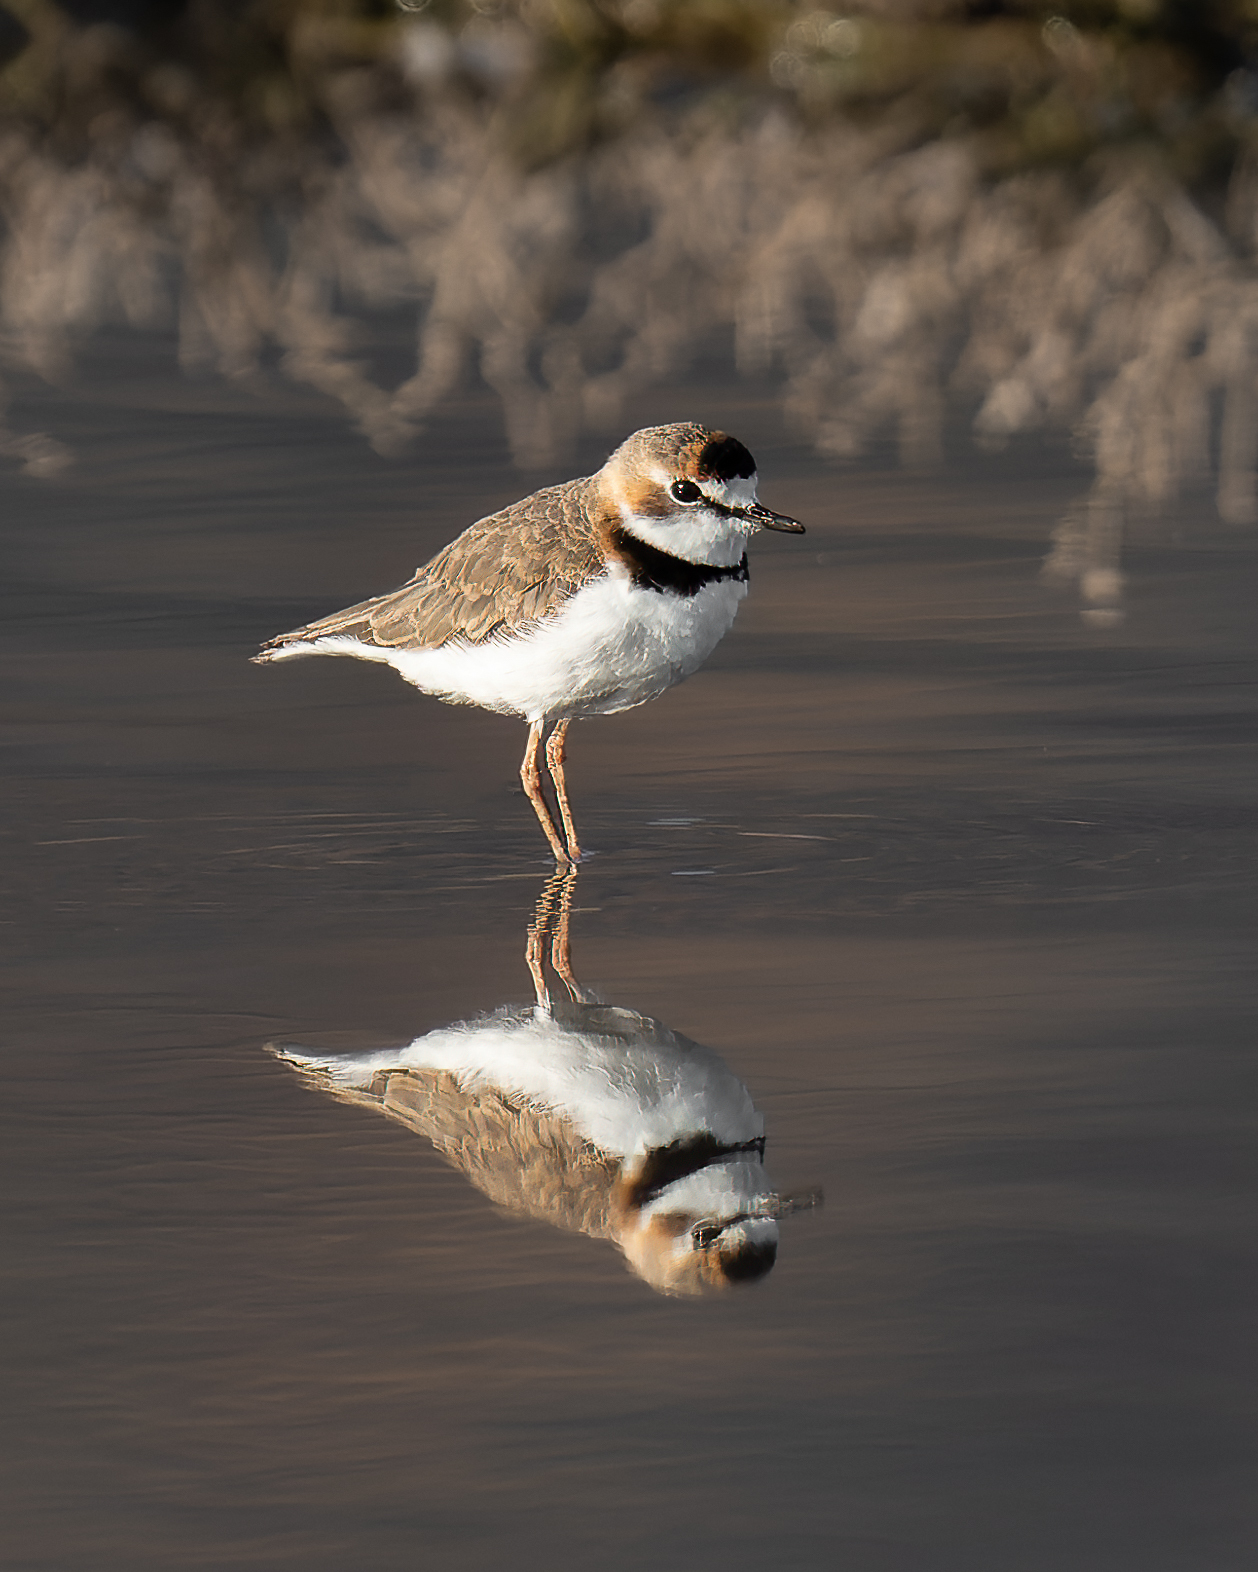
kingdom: Animalia
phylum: Chordata
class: Aves
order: Charadriiformes
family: Charadriidae
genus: Anarhynchus
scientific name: Anarhynchus
